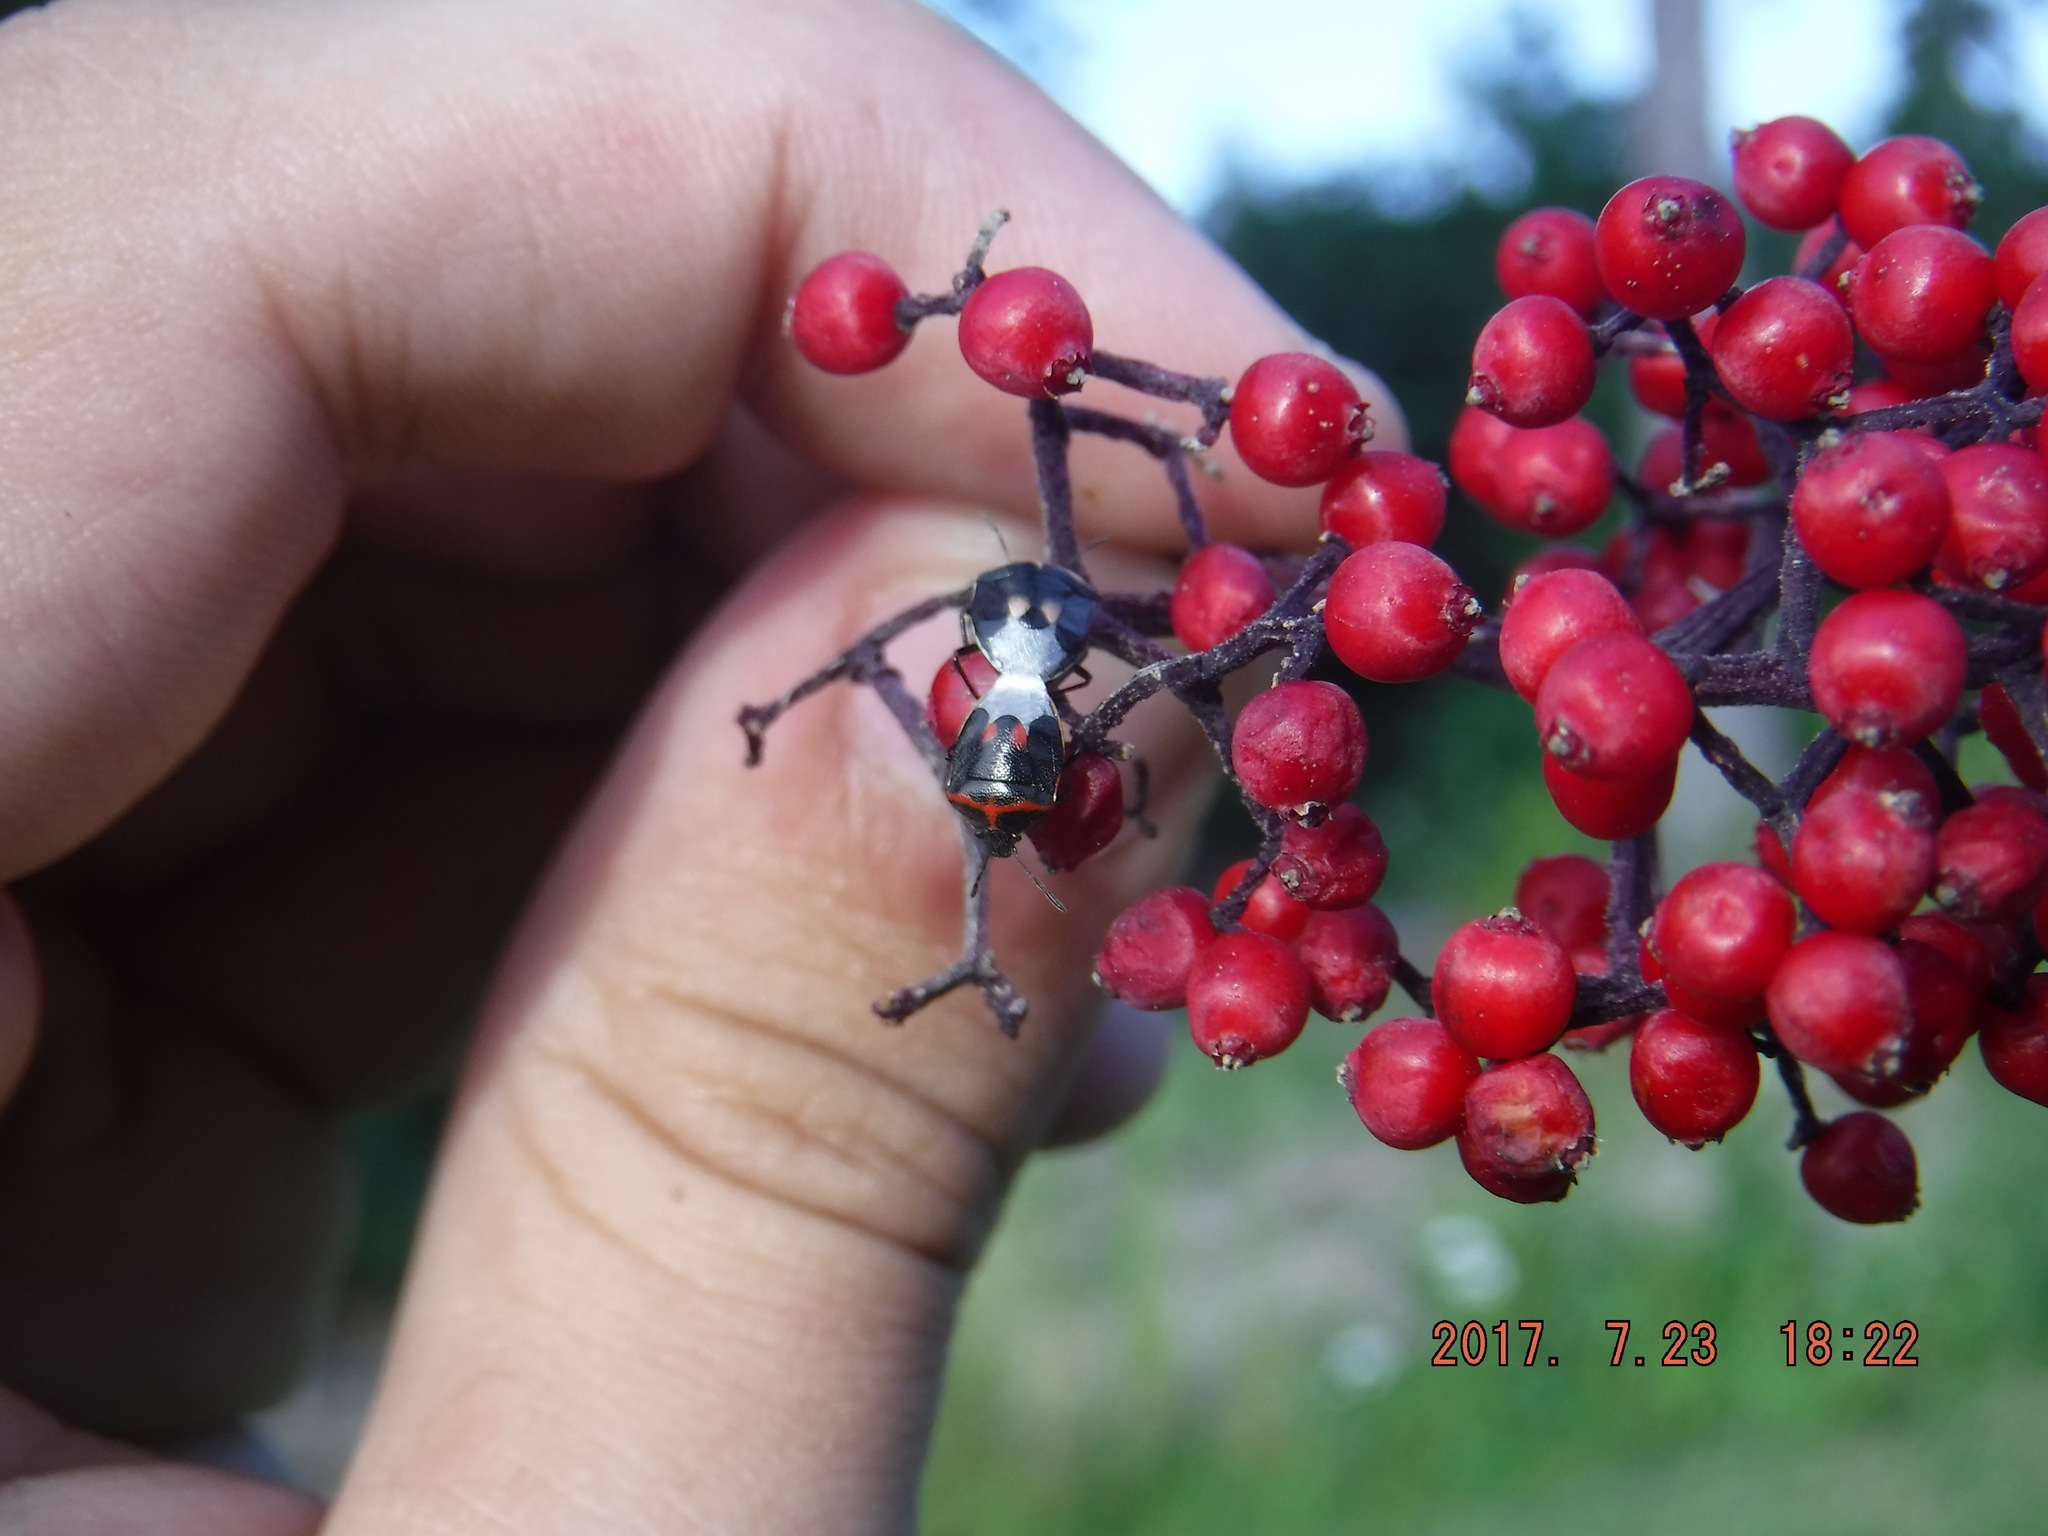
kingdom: Animalia
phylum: Arthropoda
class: Insecta
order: Hemiptera
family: Pentatomidae
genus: Cosmopepla
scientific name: Cosmopepla lintneriana
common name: Twice-stabbed stink bug
